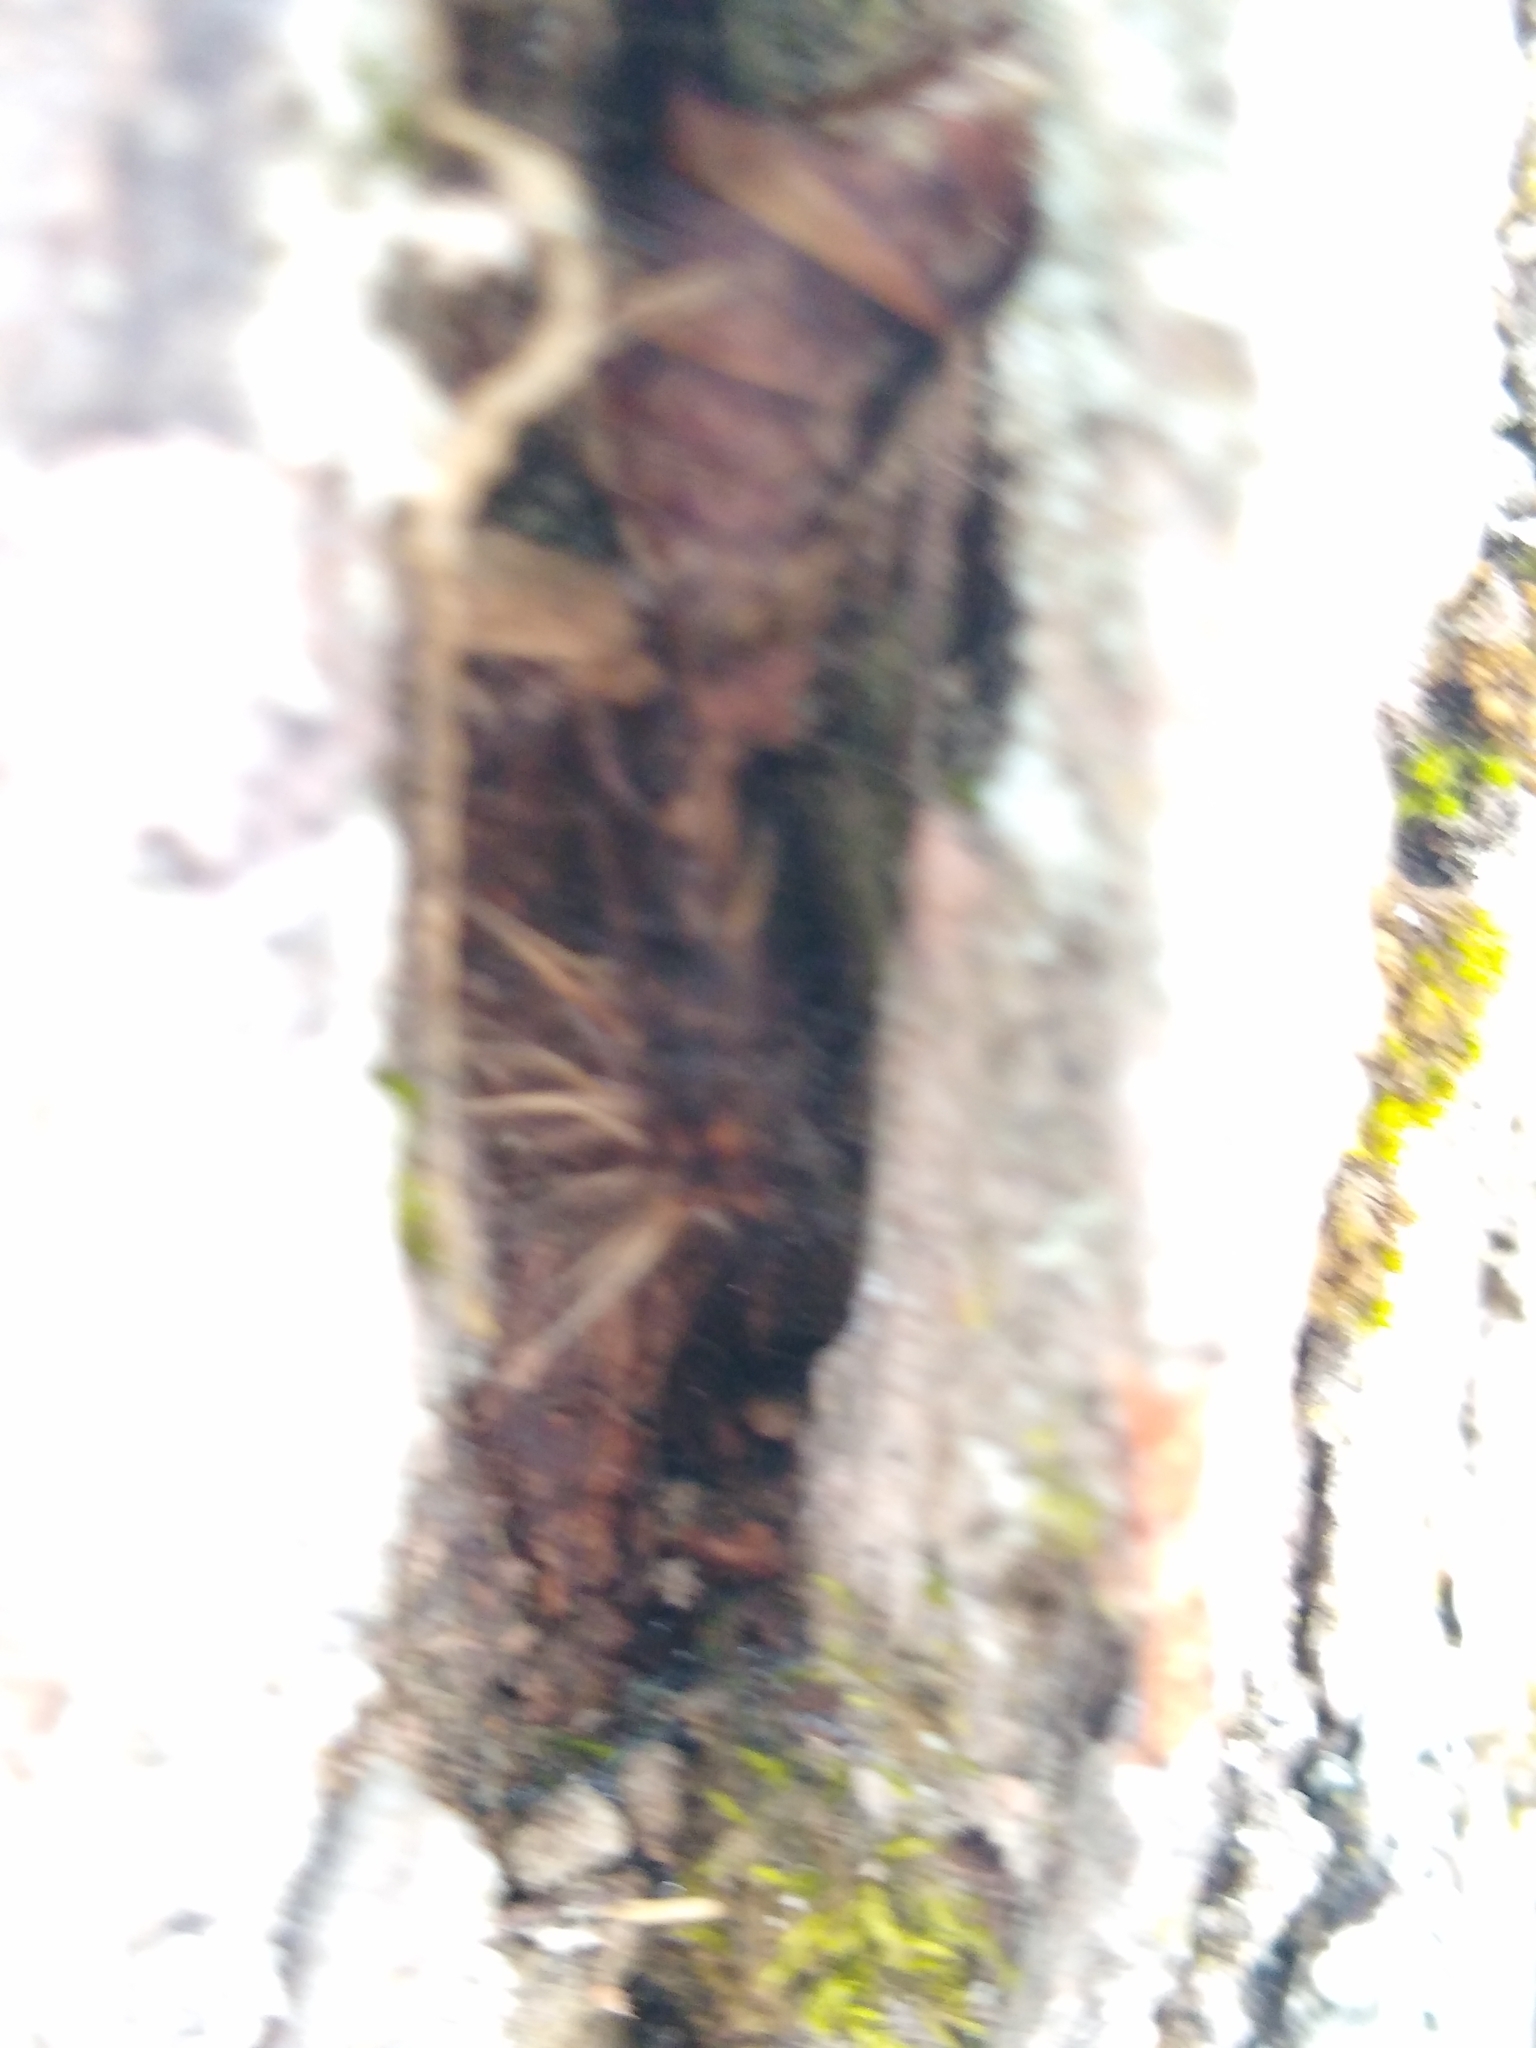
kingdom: Animalia
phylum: Arthropoda
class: Insecta
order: Lepidoptera
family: Erebidae
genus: Lymantria
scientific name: Lymantria dispar
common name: Gypsy moth
